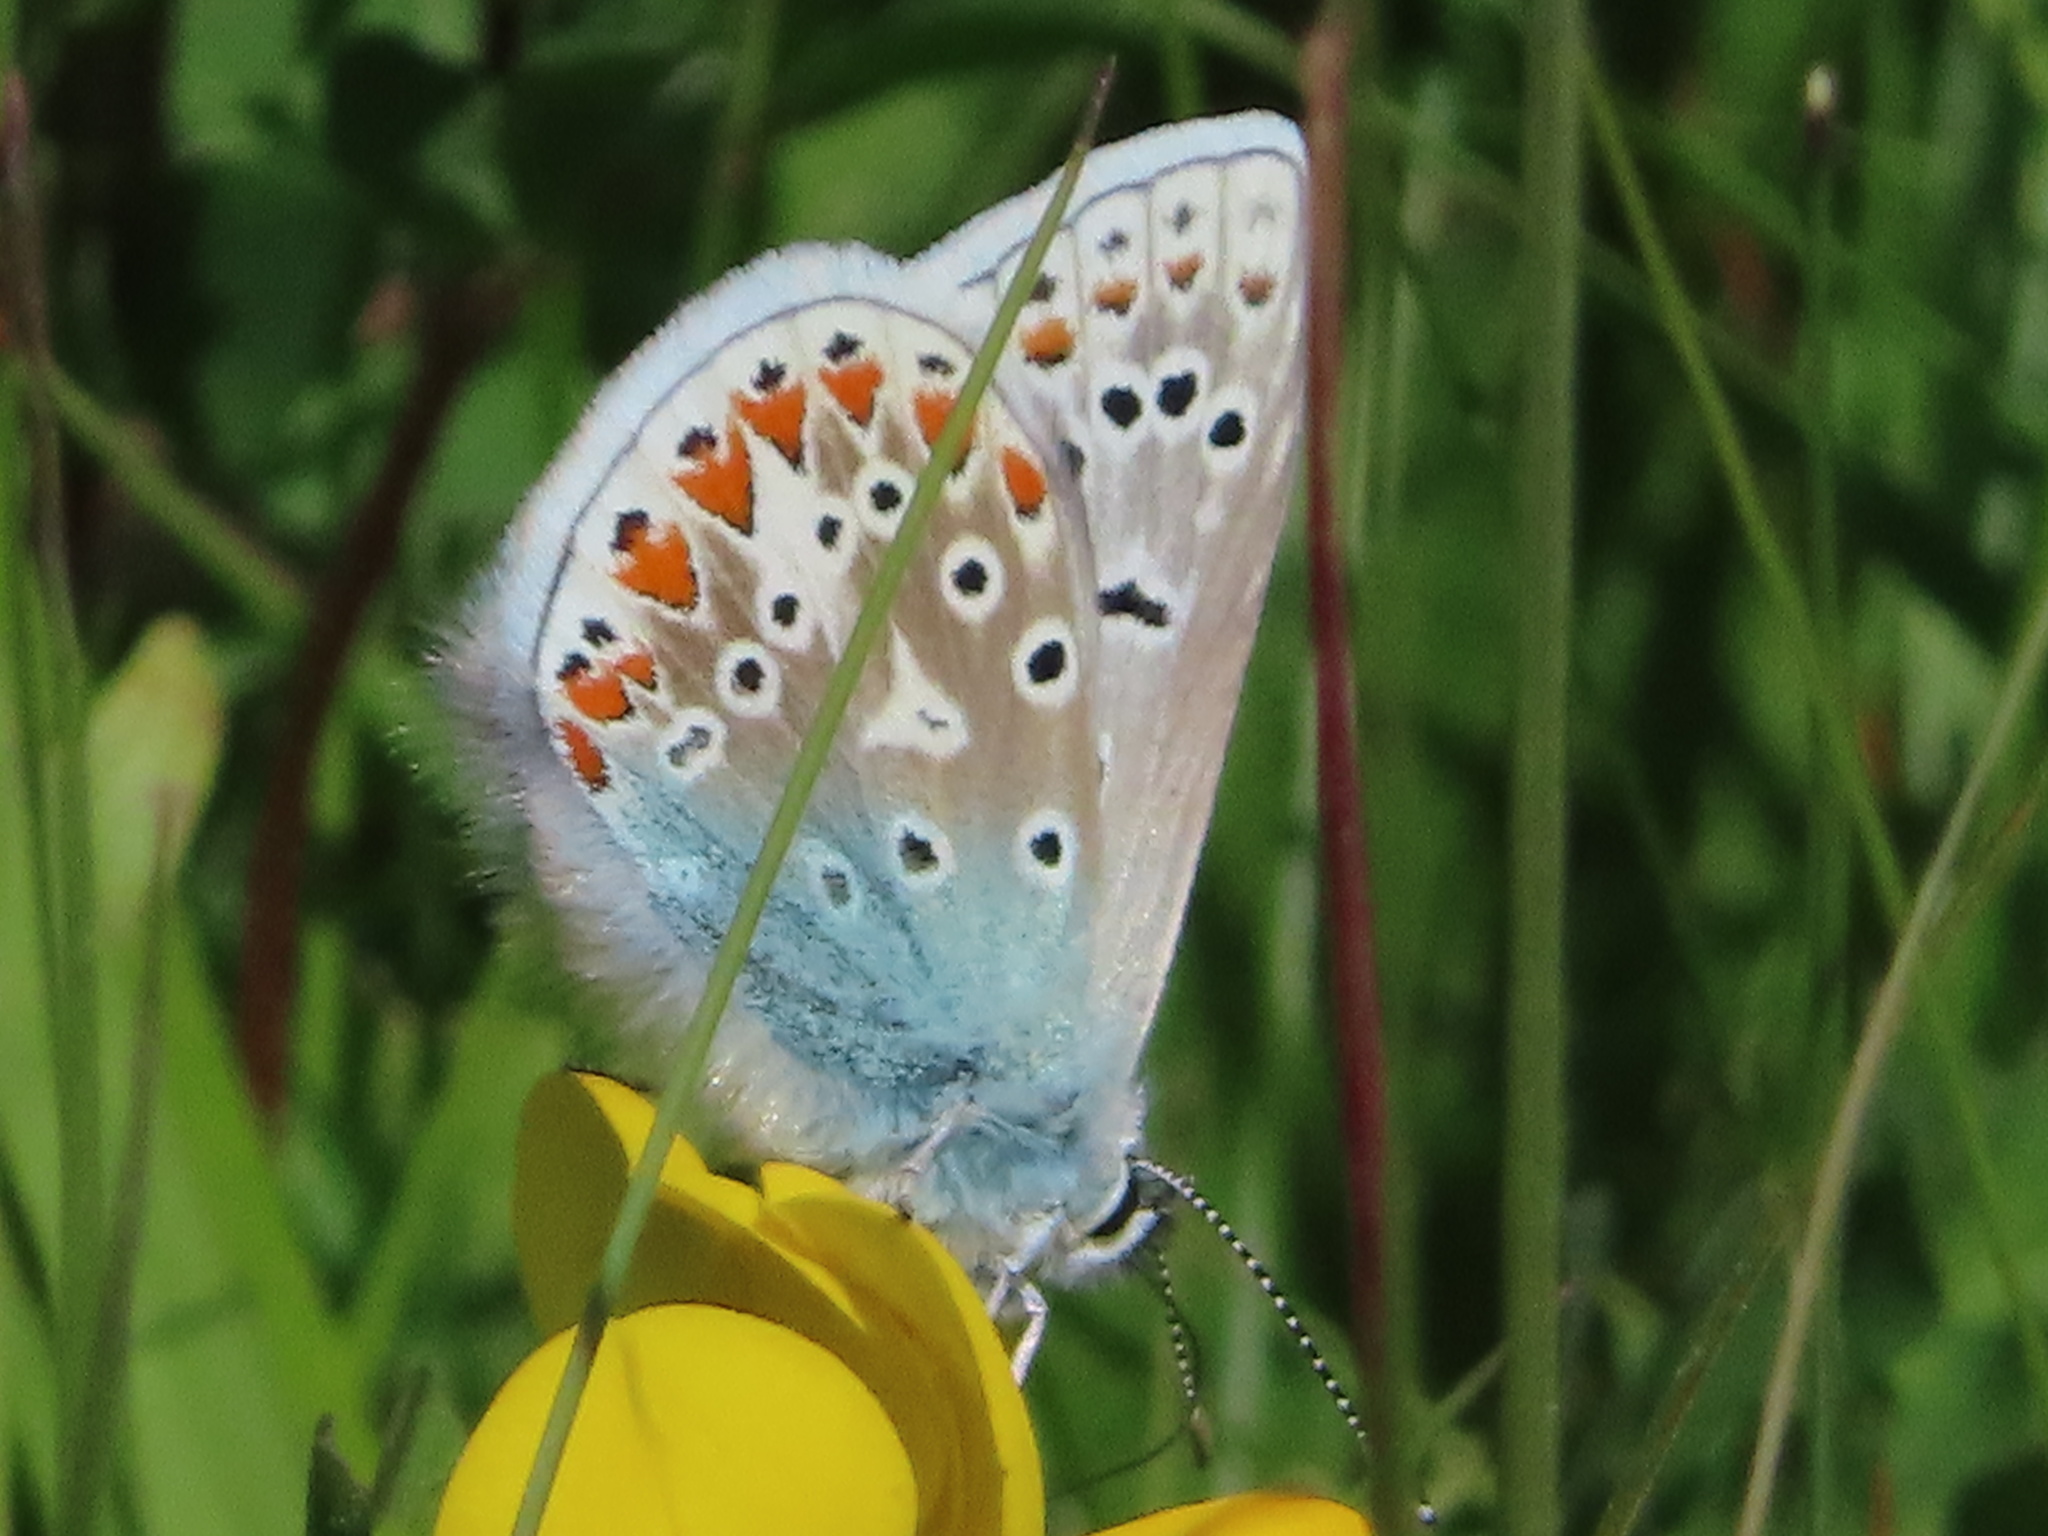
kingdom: Animalia
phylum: Arthropoda
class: Insecta
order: Lepidoptera
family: Lycaenidae
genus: Polyommatus
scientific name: Polyommatus icarus
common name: Common blue
